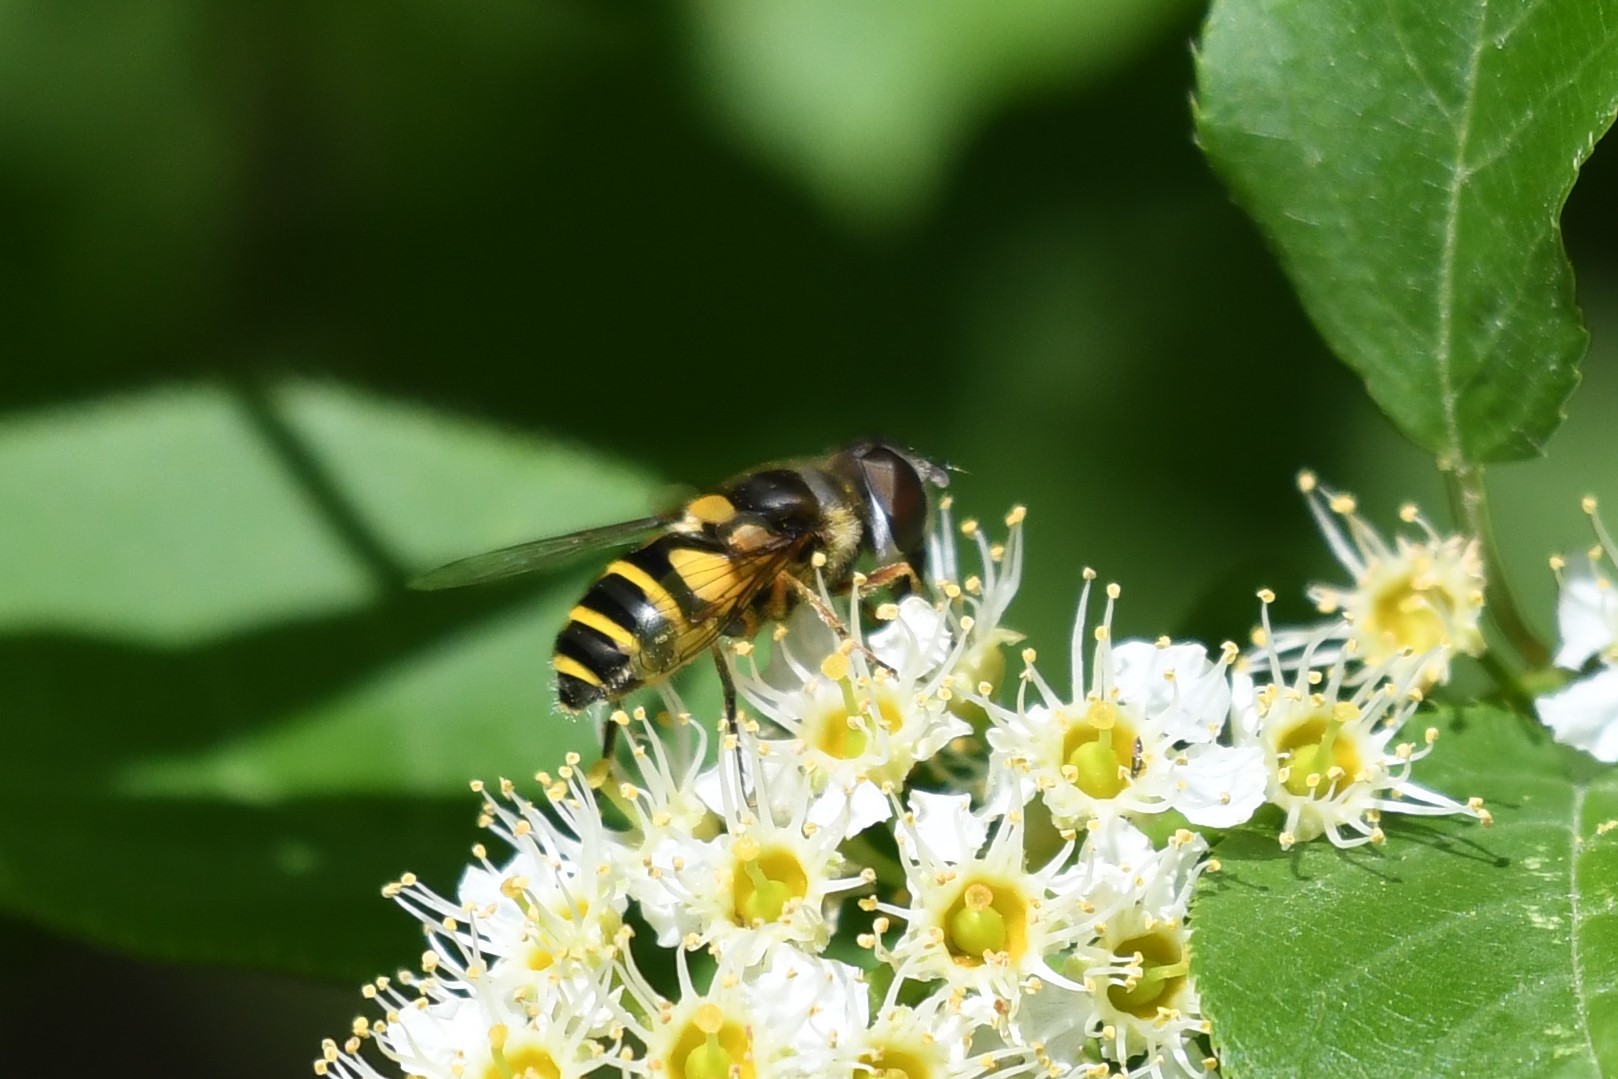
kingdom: Animalia
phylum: Arthropoda
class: Insecta
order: Diptera
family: Syrphidae
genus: Eristalis
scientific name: Eristalis transversa
